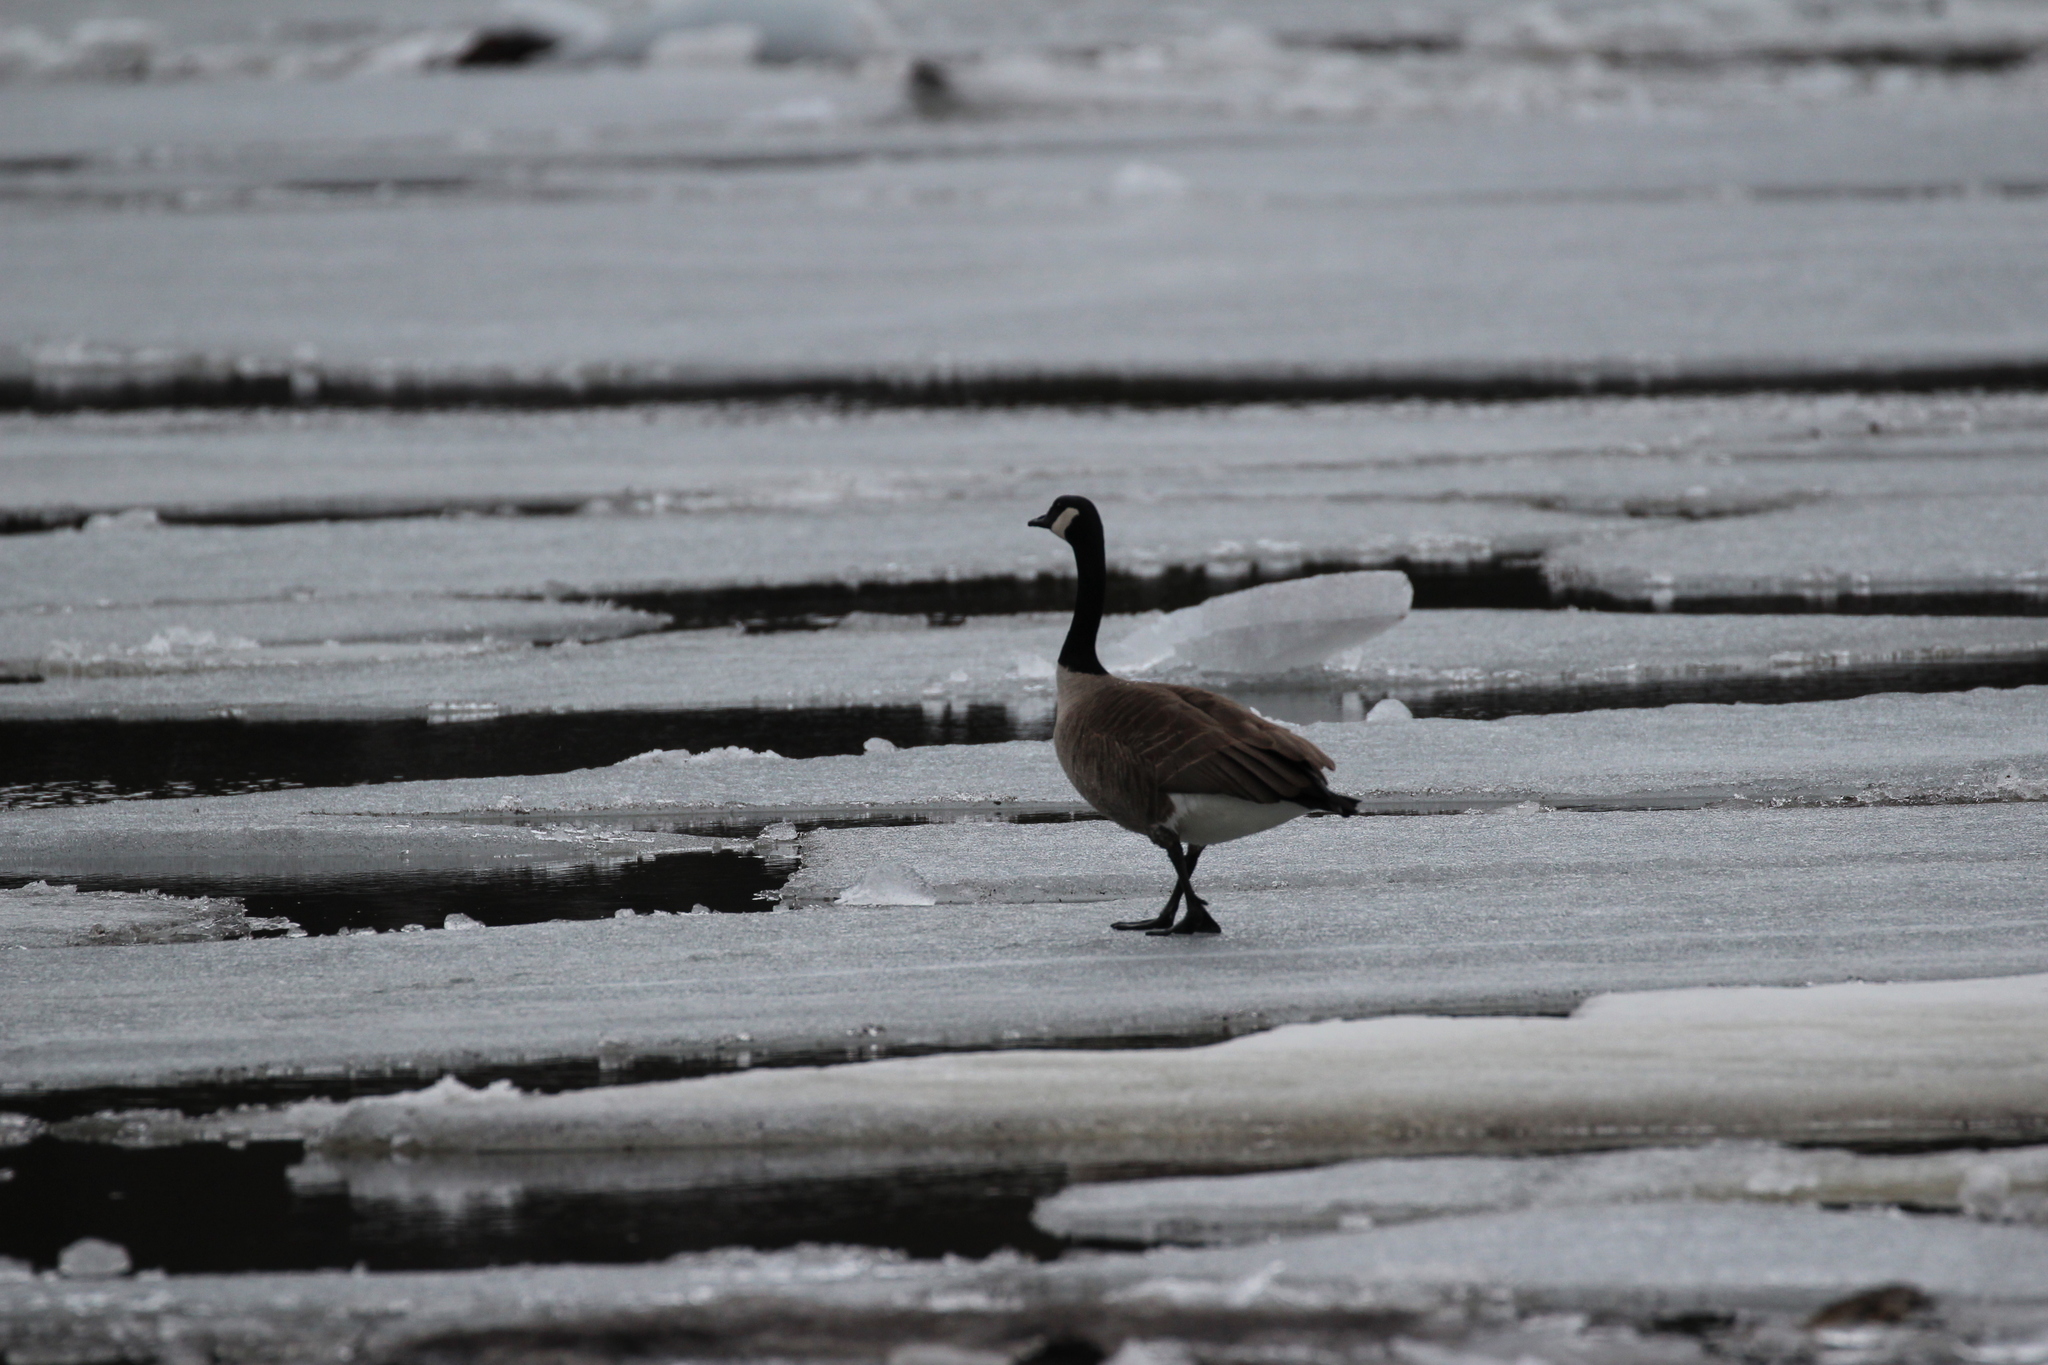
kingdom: Animalia
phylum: Chordata
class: Aves
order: Anseriformes
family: Anatidae
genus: Branta
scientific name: Branta canadensis
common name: Canada goose
